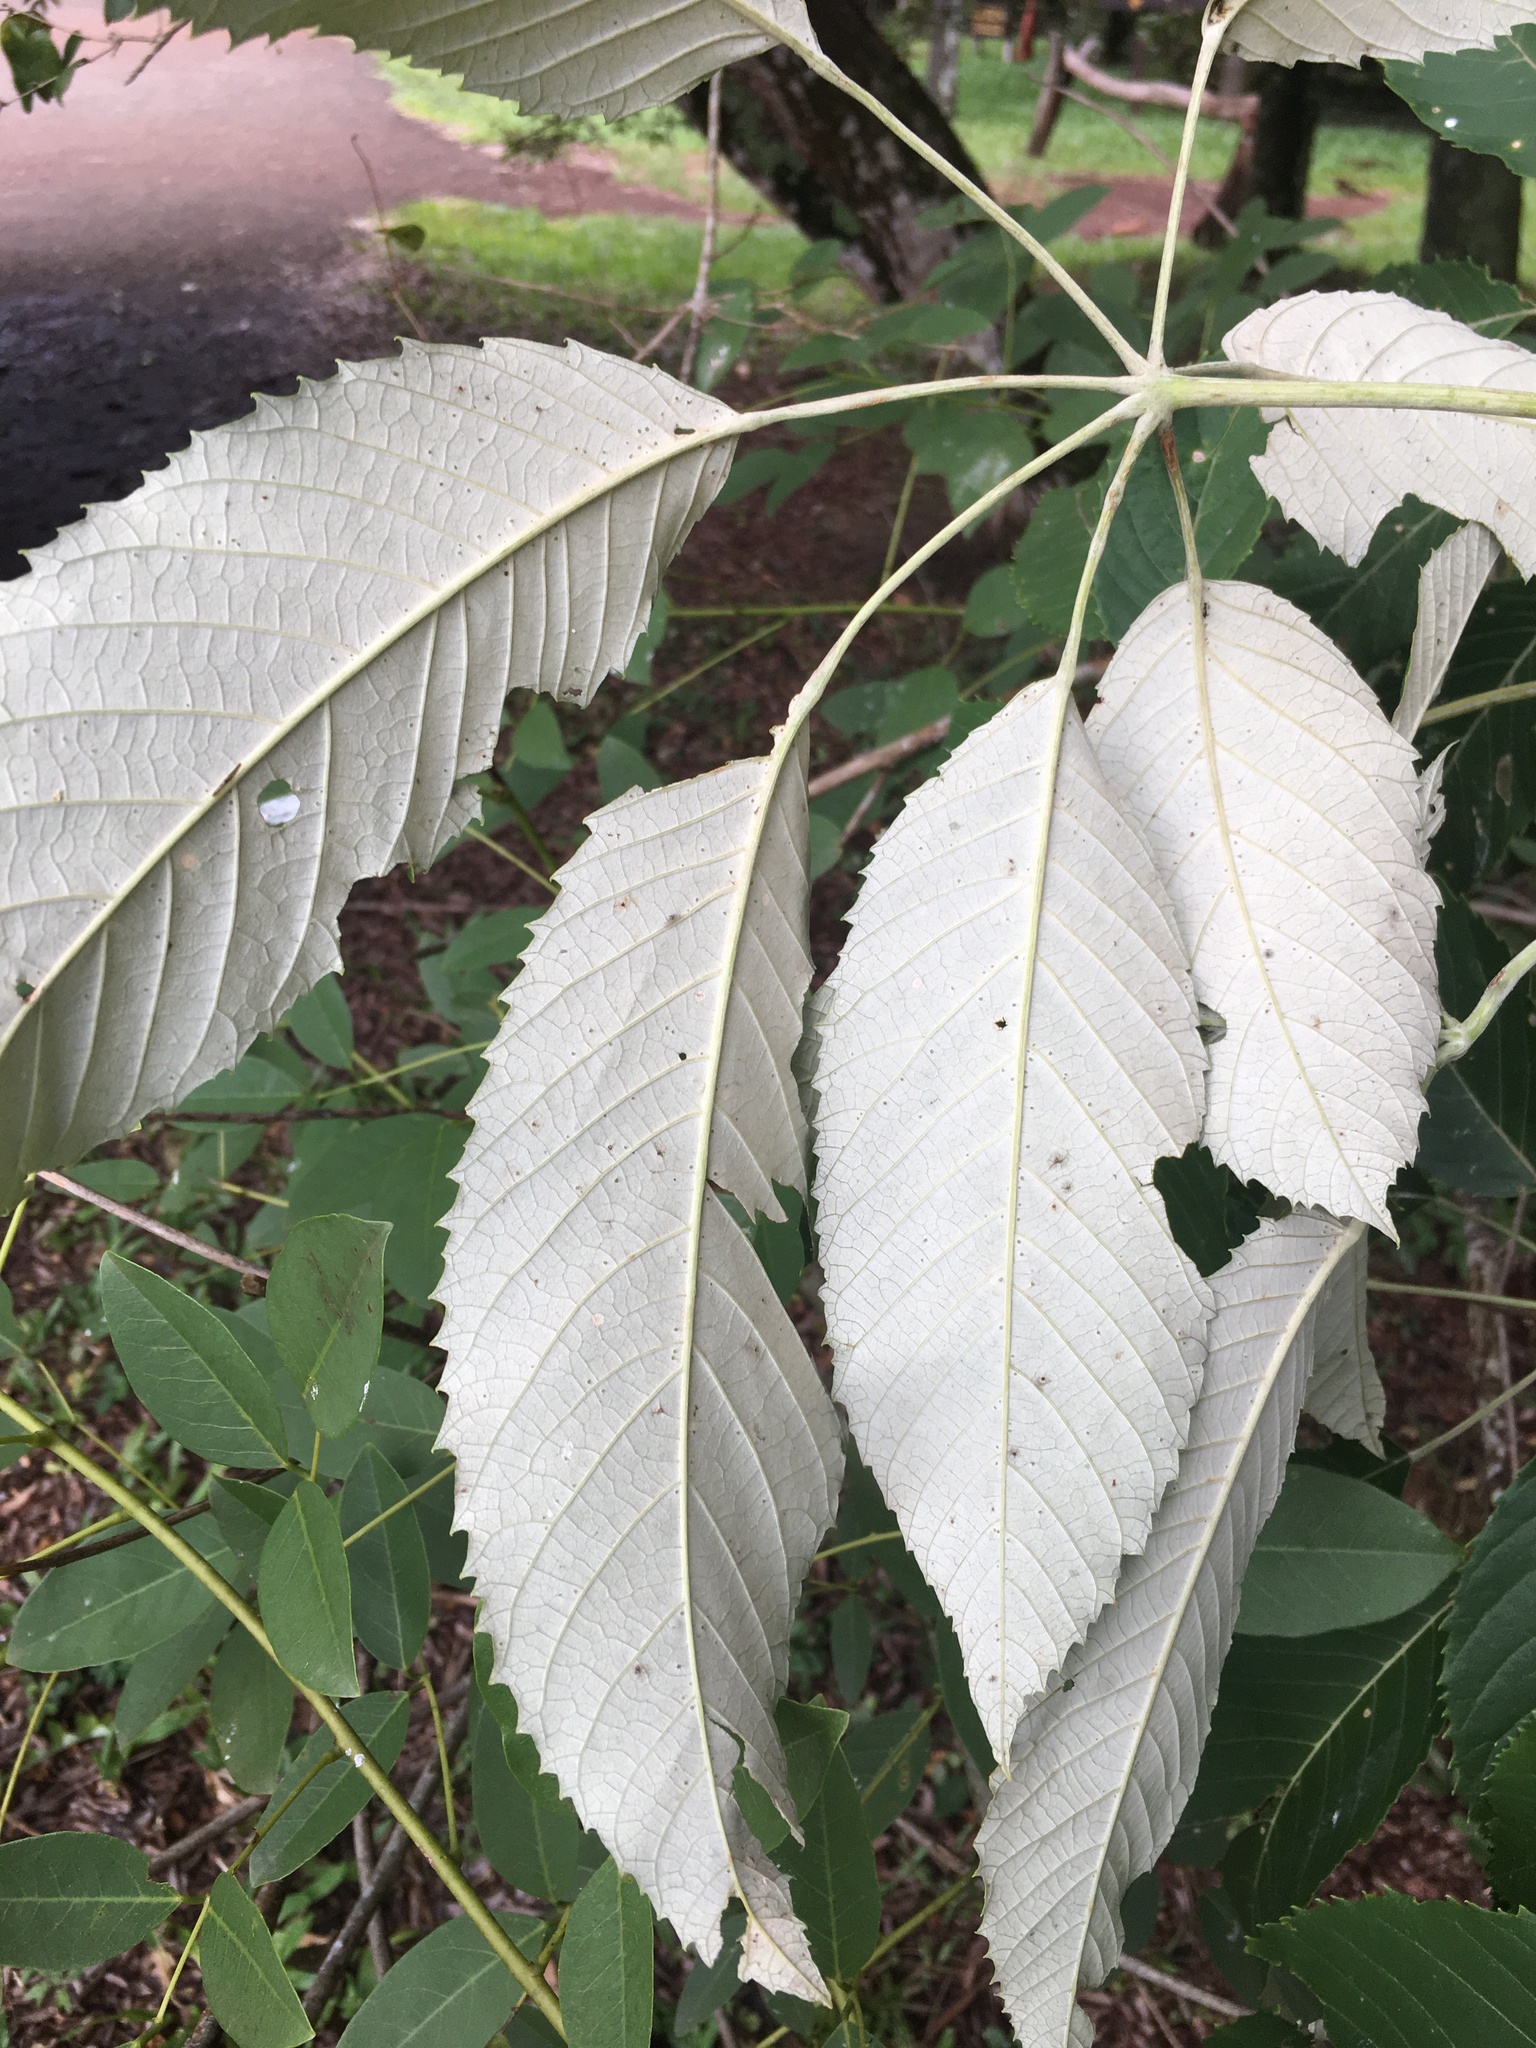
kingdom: Plantae
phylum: Tracheophyta
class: Magnoliopsida
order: Lamiales
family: Bignoniaceae
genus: Handroanthus
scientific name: Handroanthus albus
